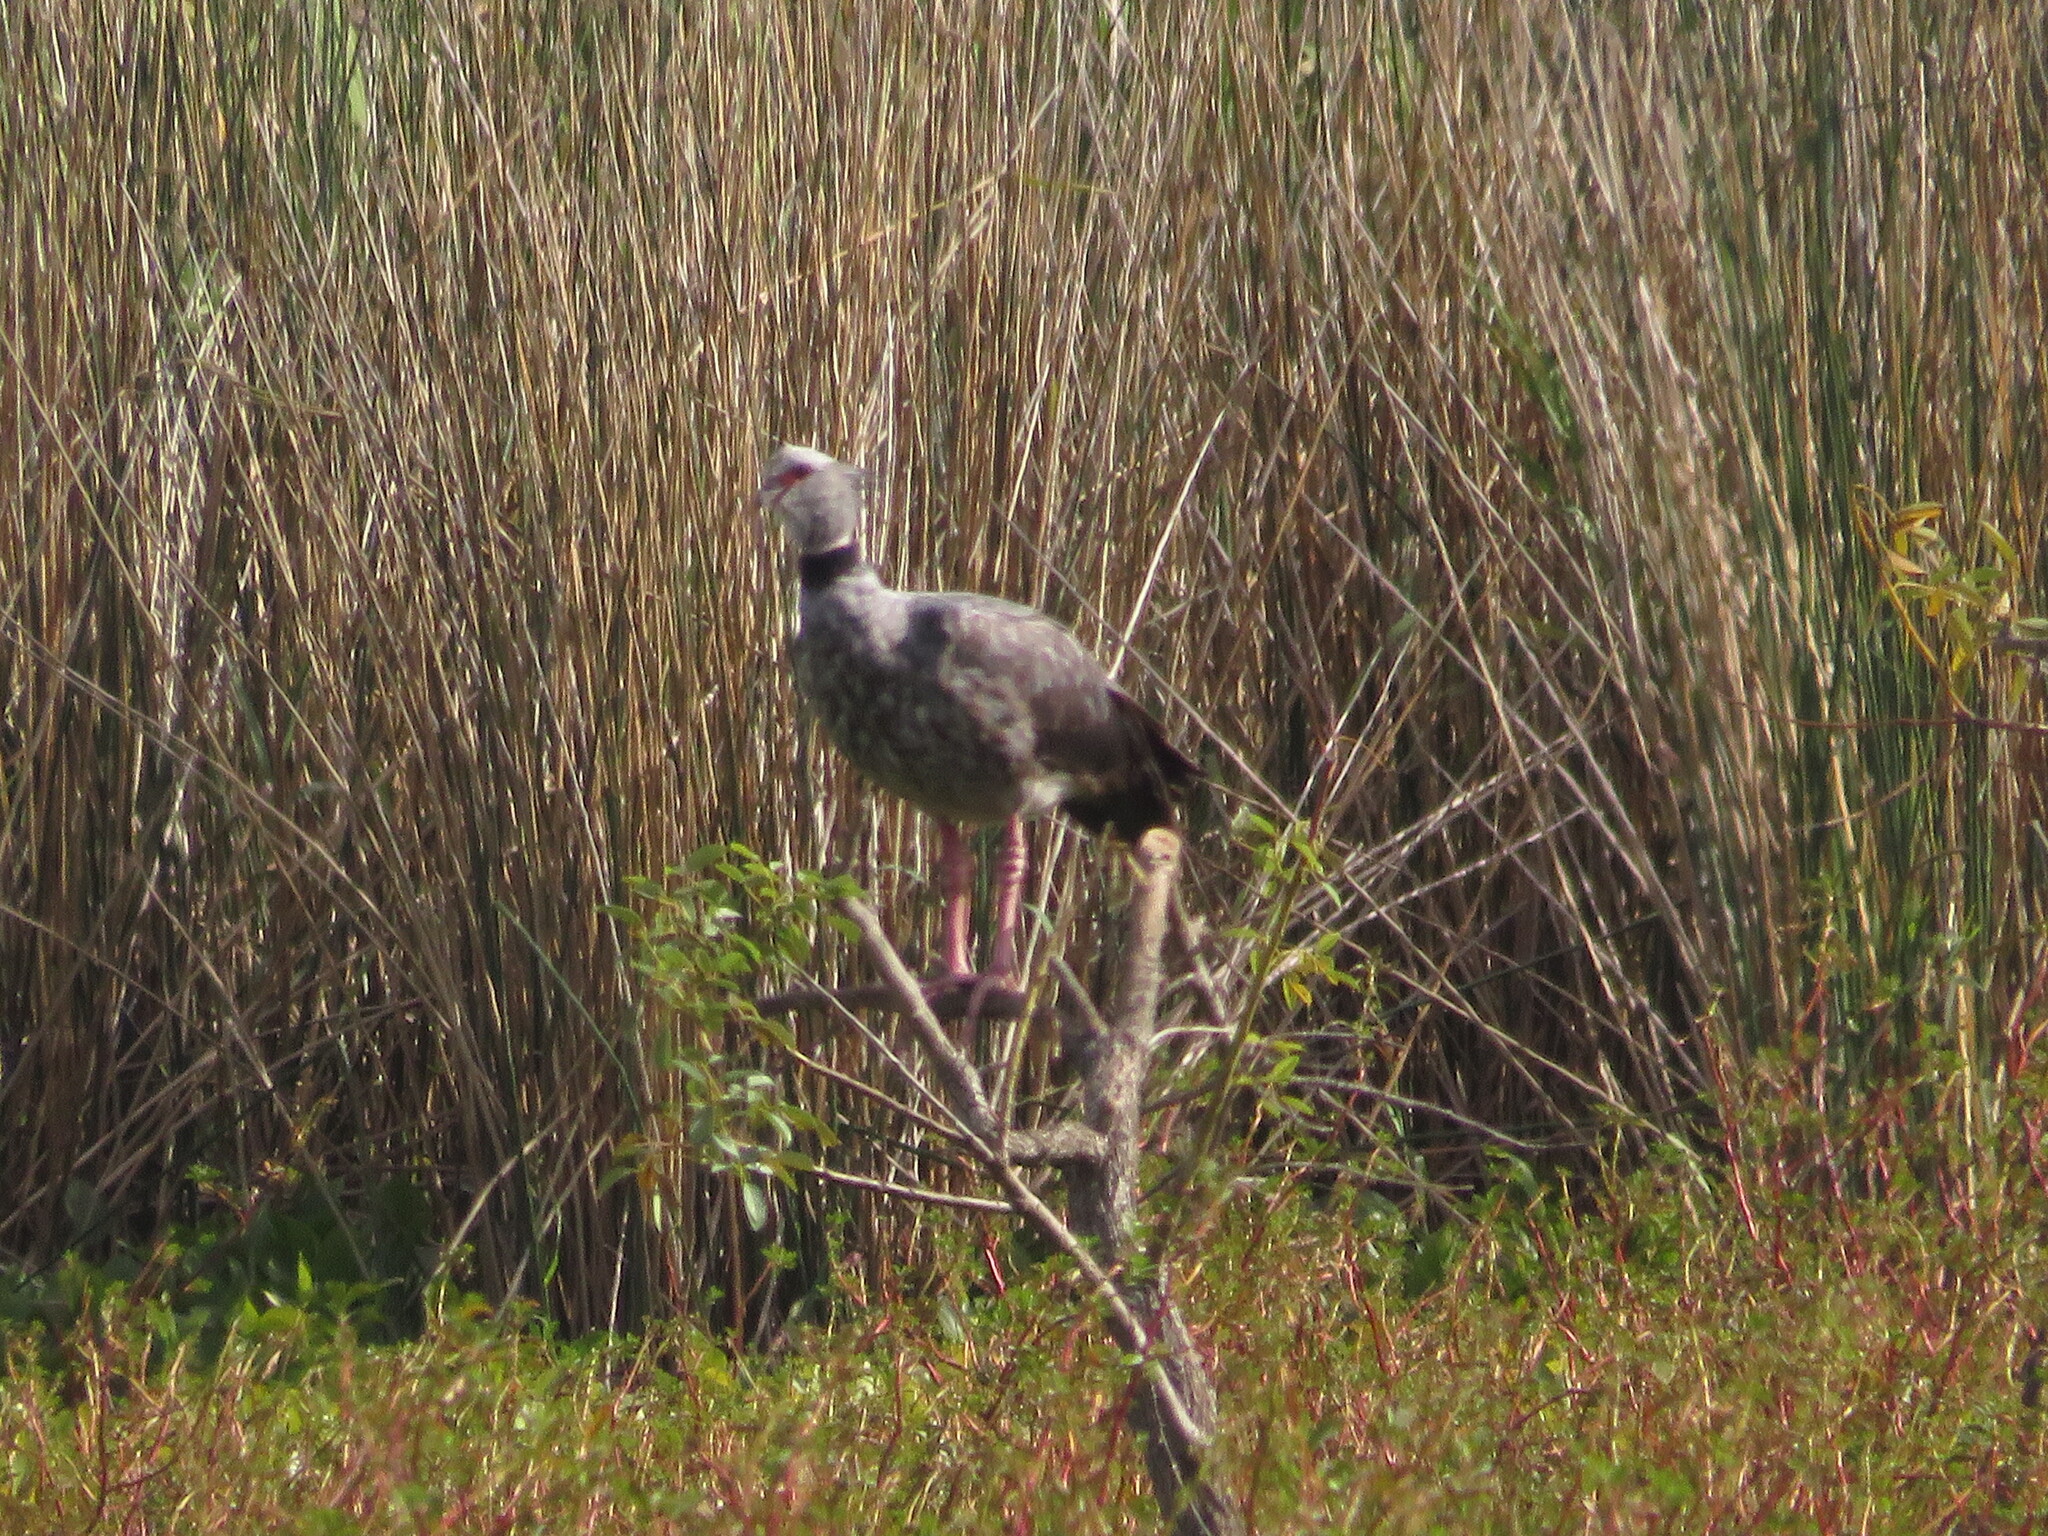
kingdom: Animalia
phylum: Chordata
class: Aves
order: Anseriformes
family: Anhimidae
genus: Chauna
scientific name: Chauna torquata
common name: Southern screamer
